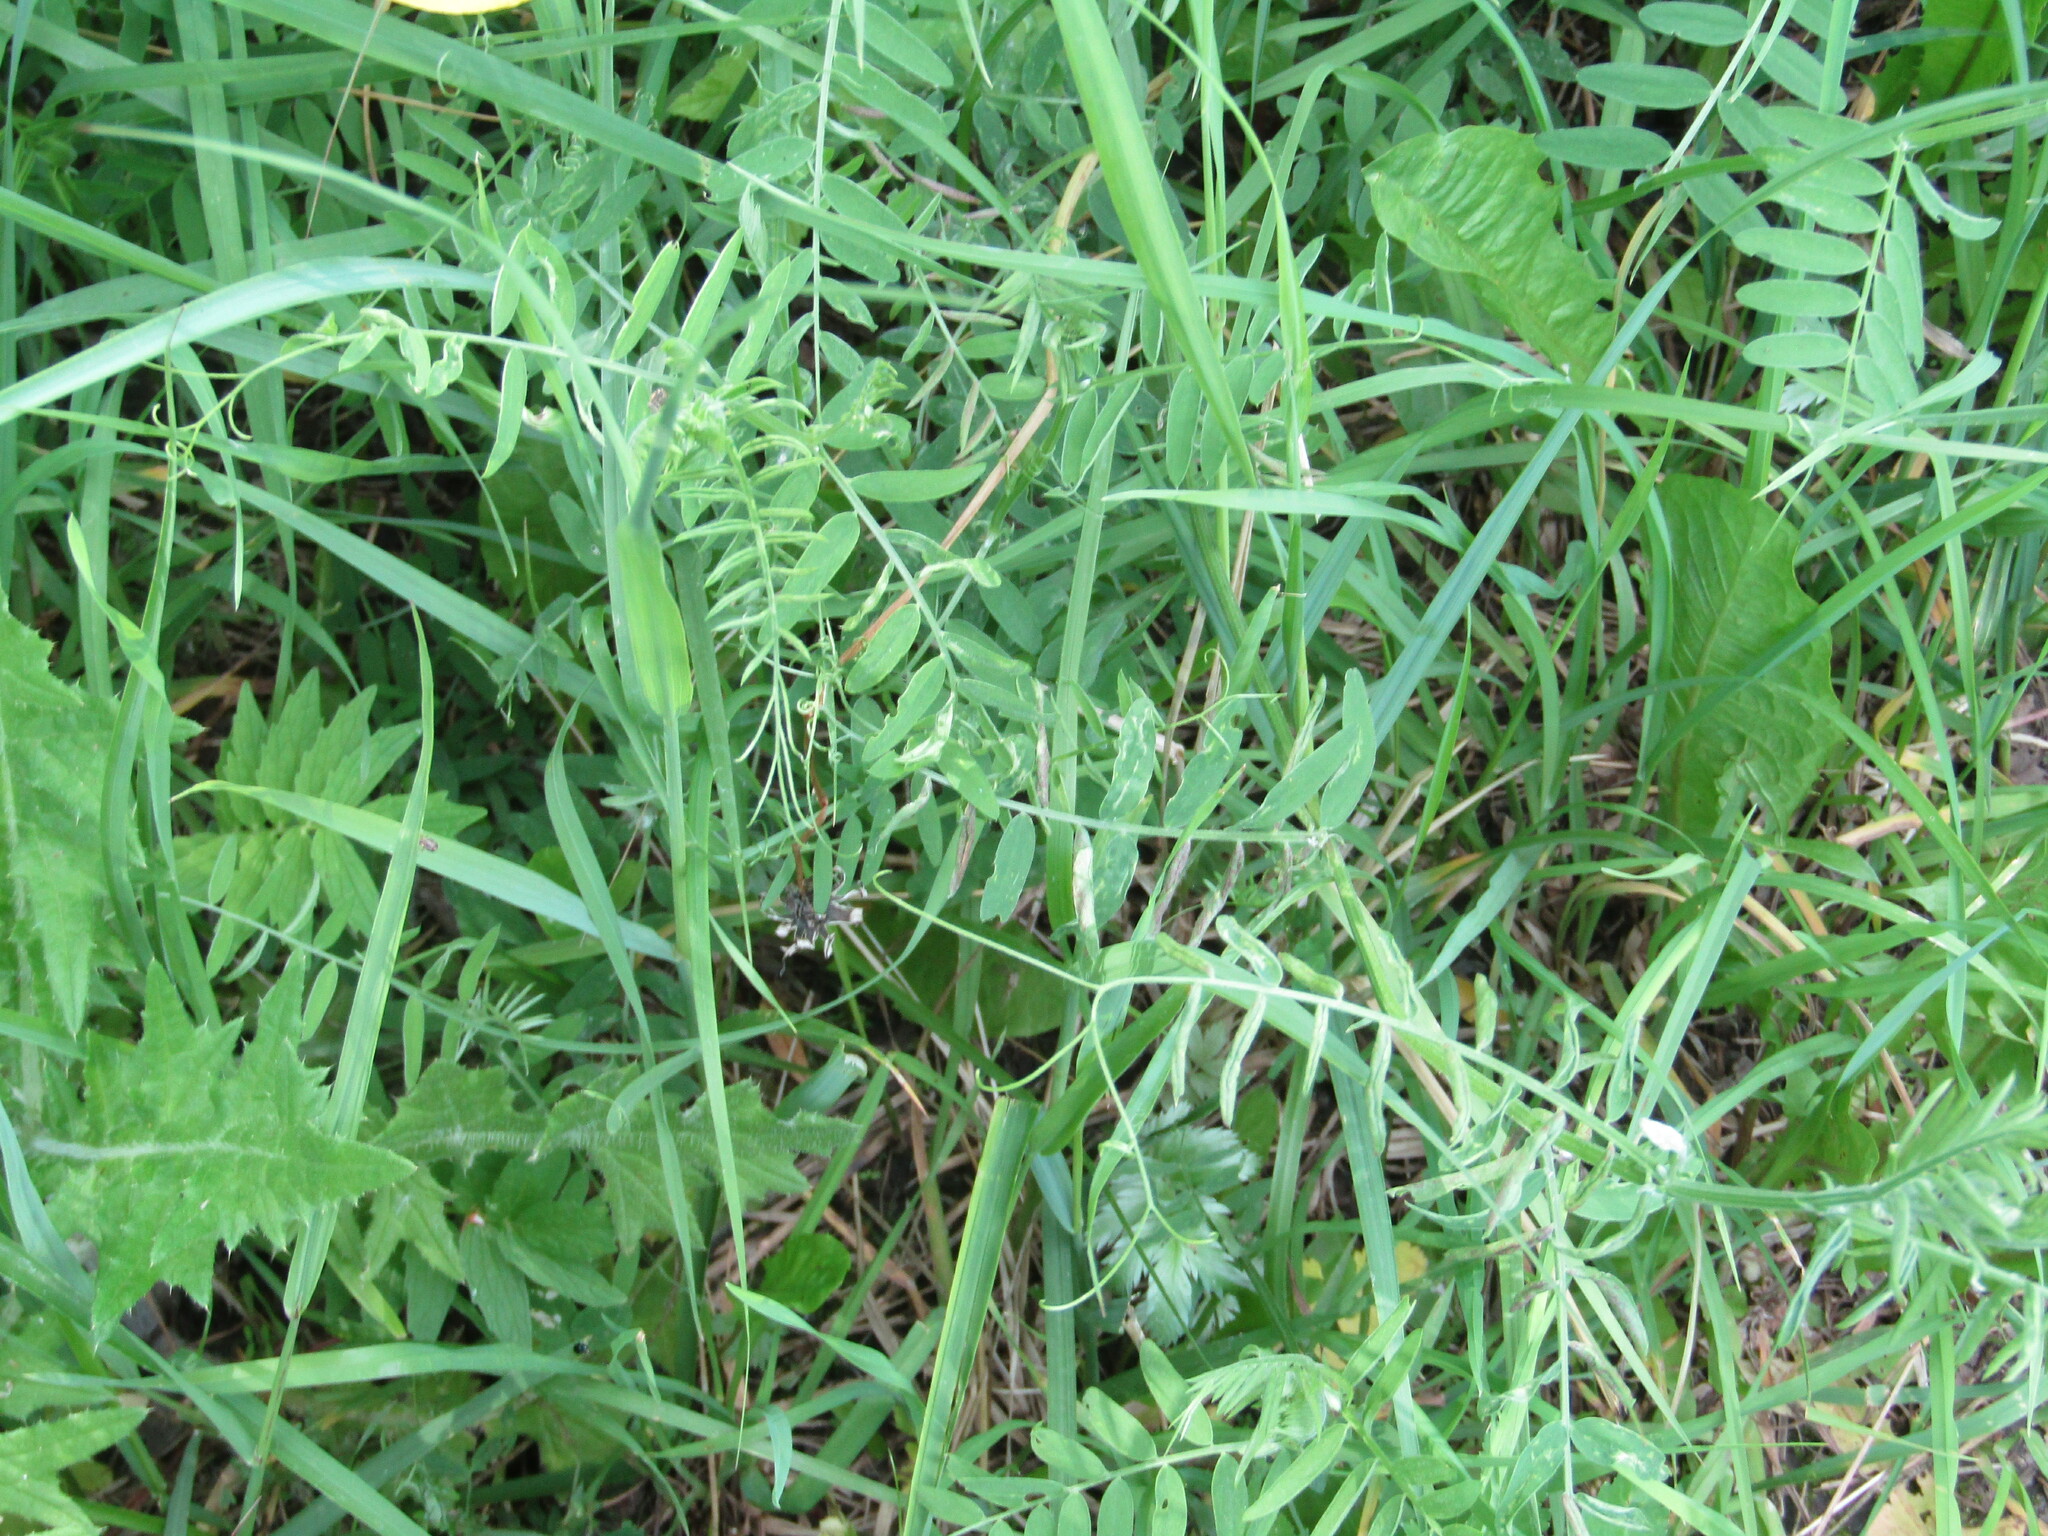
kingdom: Plantae
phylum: Tracheophyta
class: Magnoliopsida
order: Fabales
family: Fabaceae
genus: Vicia
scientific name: Vicia cracca
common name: Bird vetch
